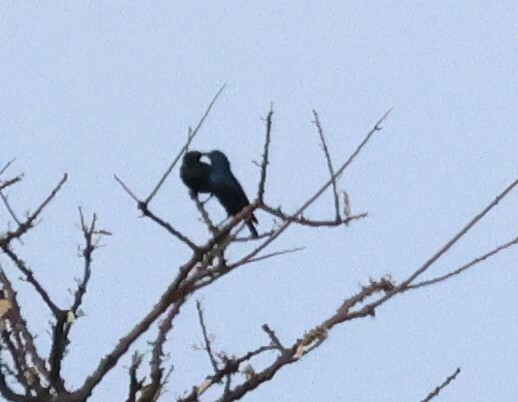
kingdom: Animalia
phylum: Chordata
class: Aves
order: Passeriformes
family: Sturnidae
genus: Lamprotornis
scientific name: Lamprotornis nitens
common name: Cape starling
